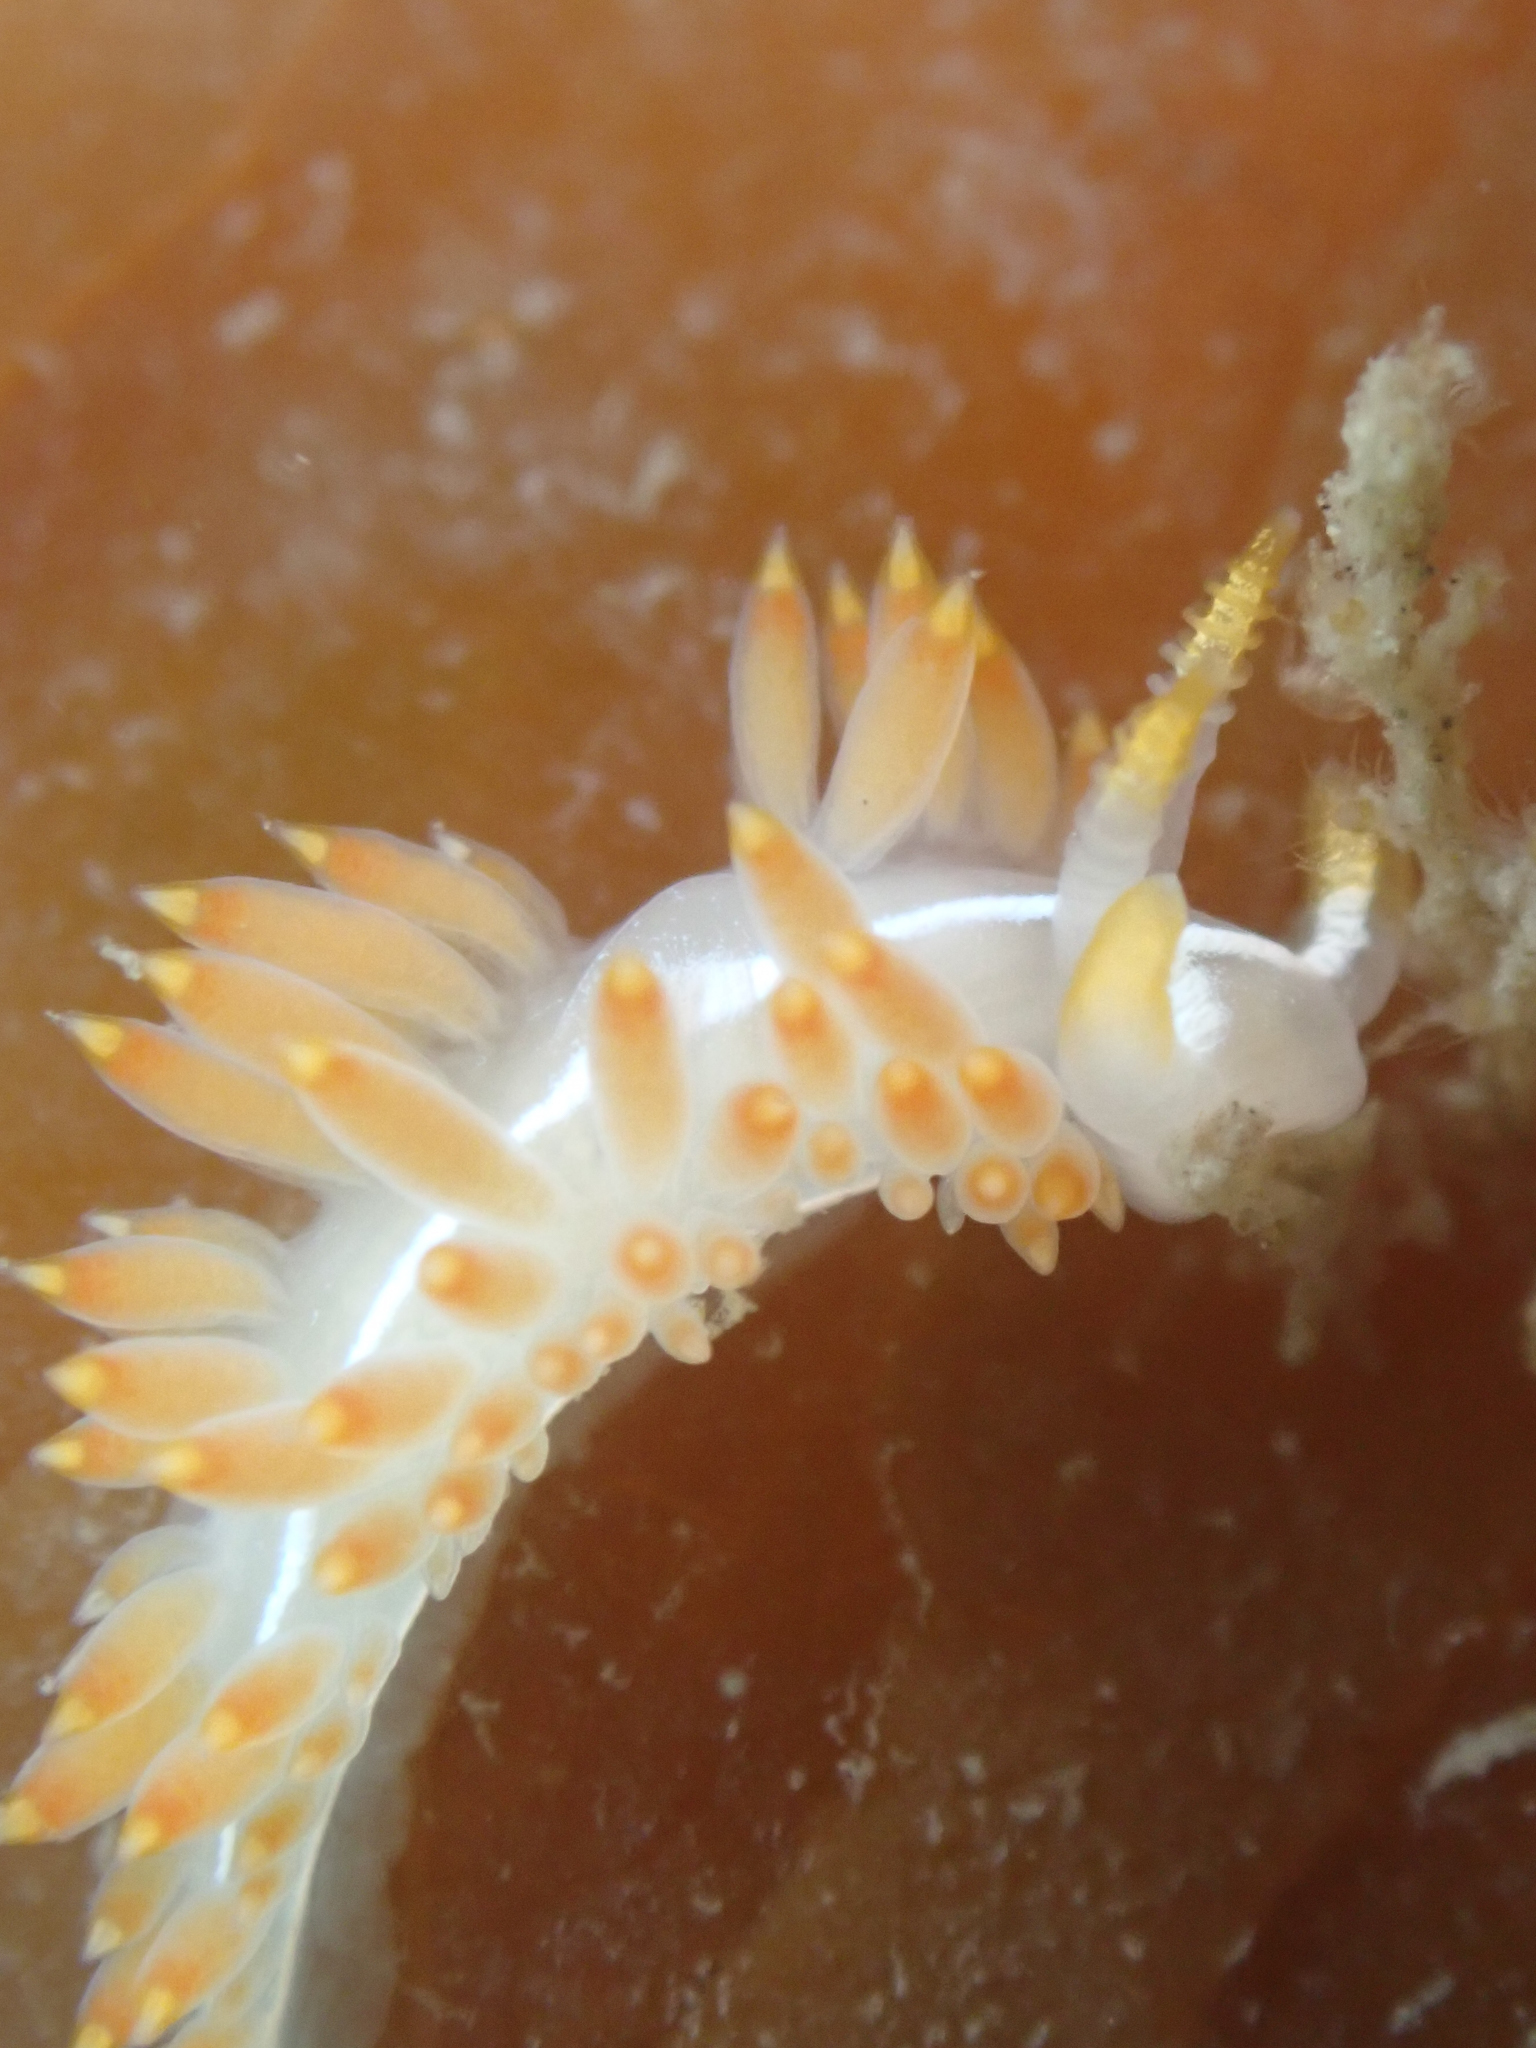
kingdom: Animalia
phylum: Mollusca
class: Gastropoda
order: Nudibranchia
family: Coryphellidae
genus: Coryphella
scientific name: Coryphella trilineata
